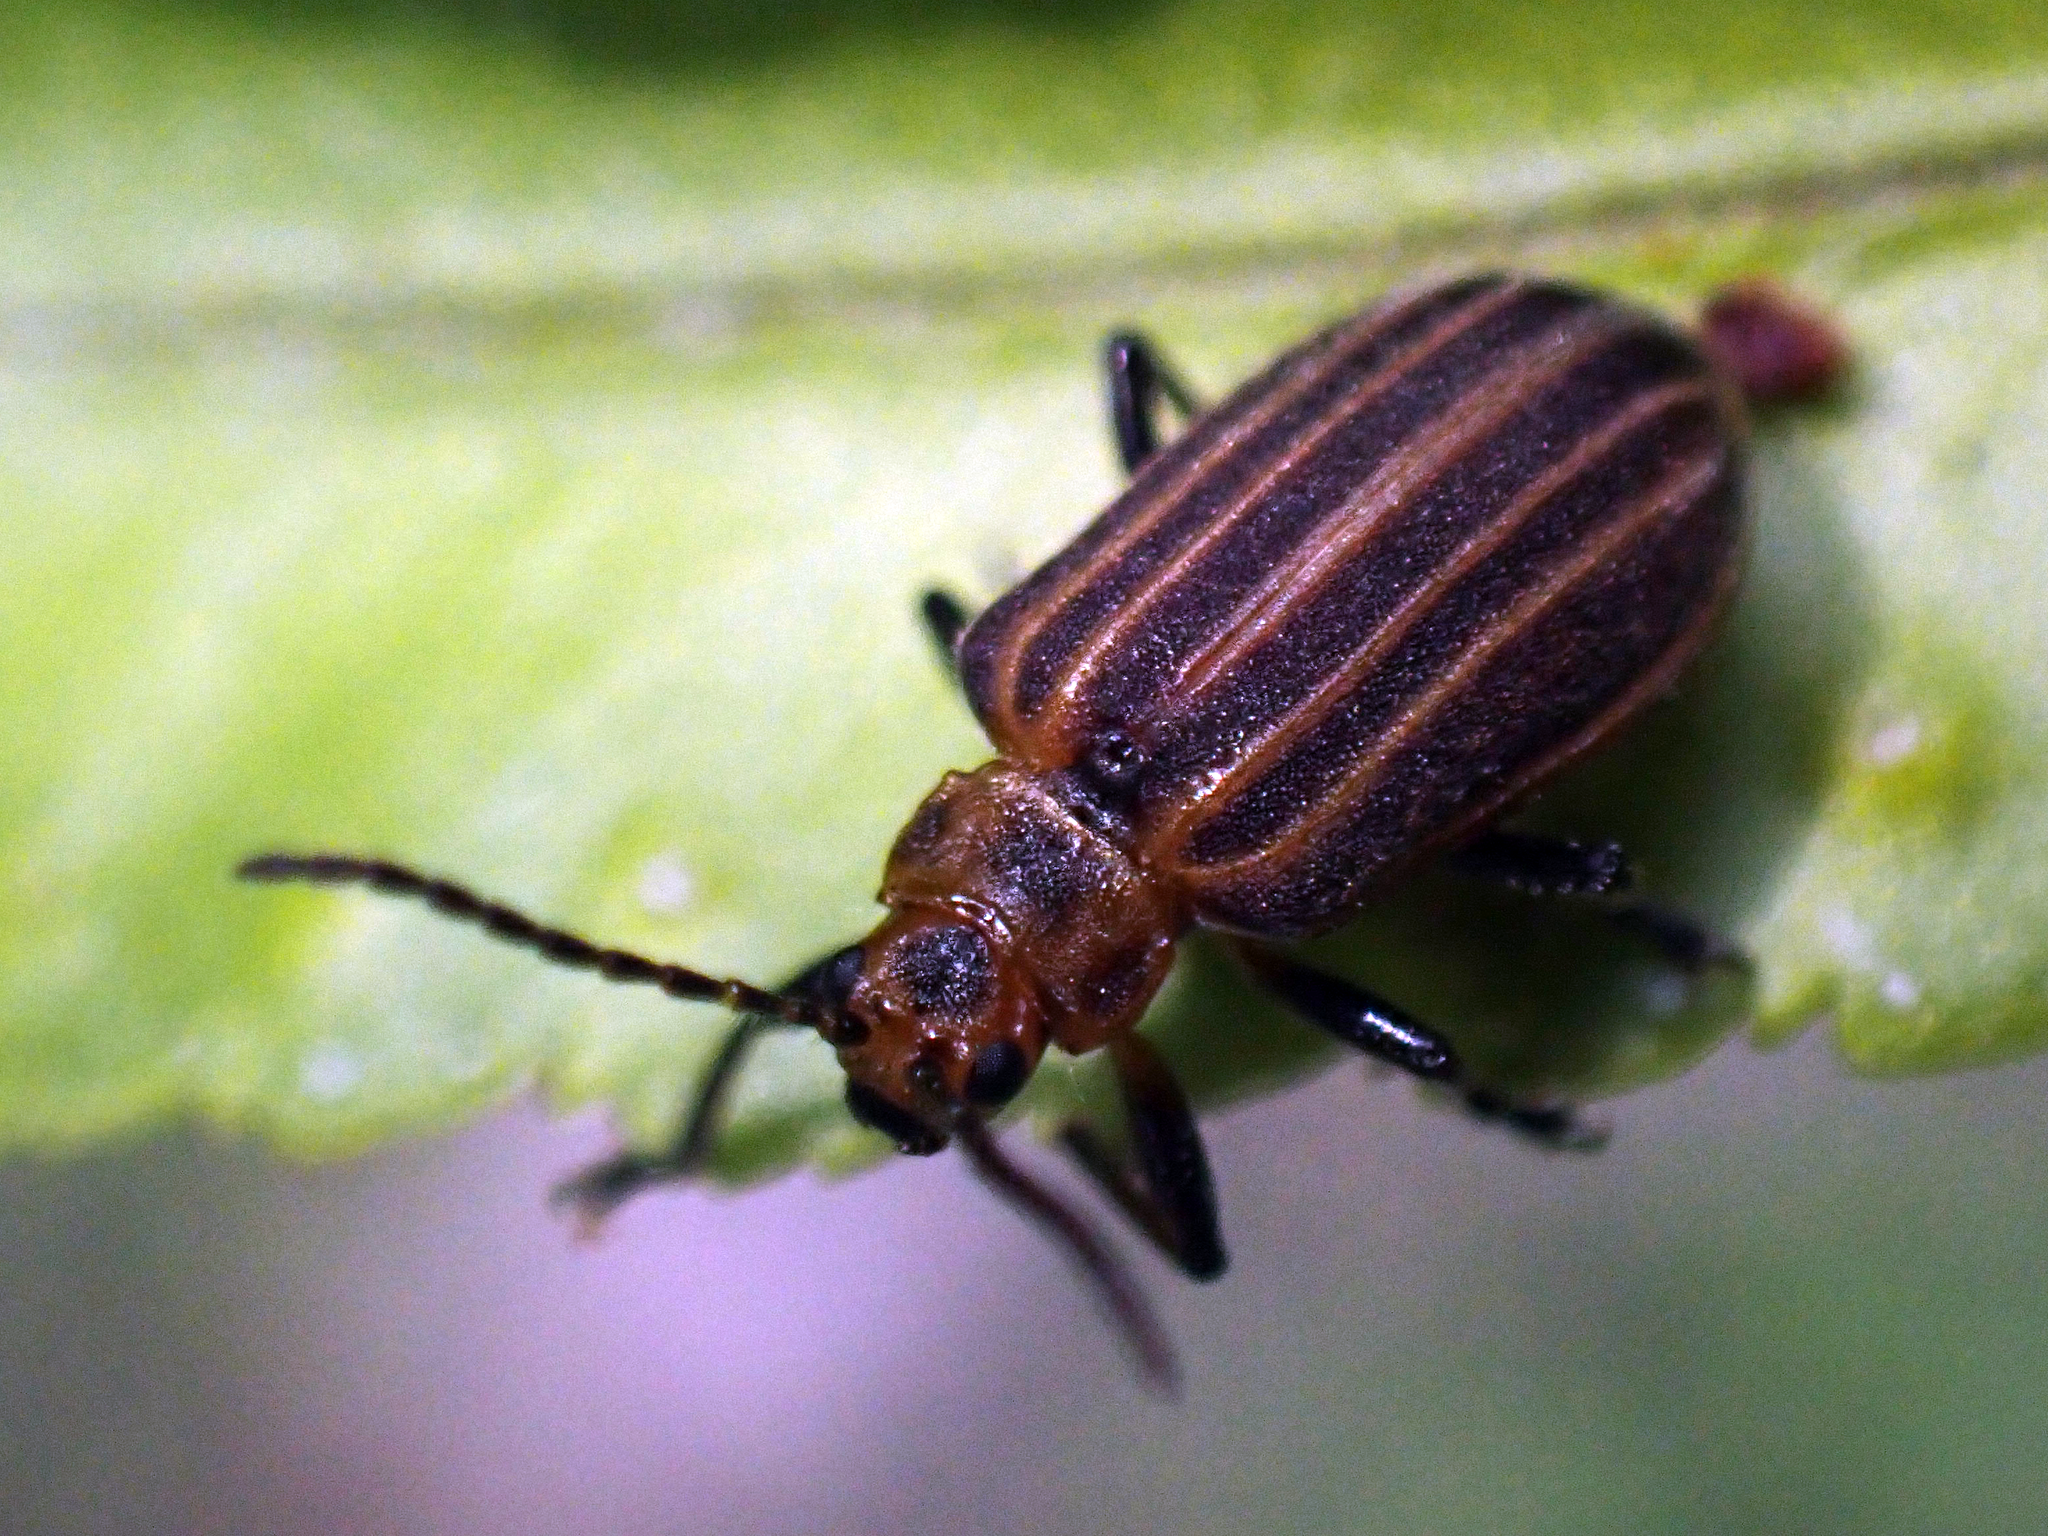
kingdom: Animalia
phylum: Arthropoda
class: Insecta
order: Coleoptera
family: Chrysomelidae
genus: Neolochmaea
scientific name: Neolochmaea dilatipennis
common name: Skeletonizing leaf beetle
